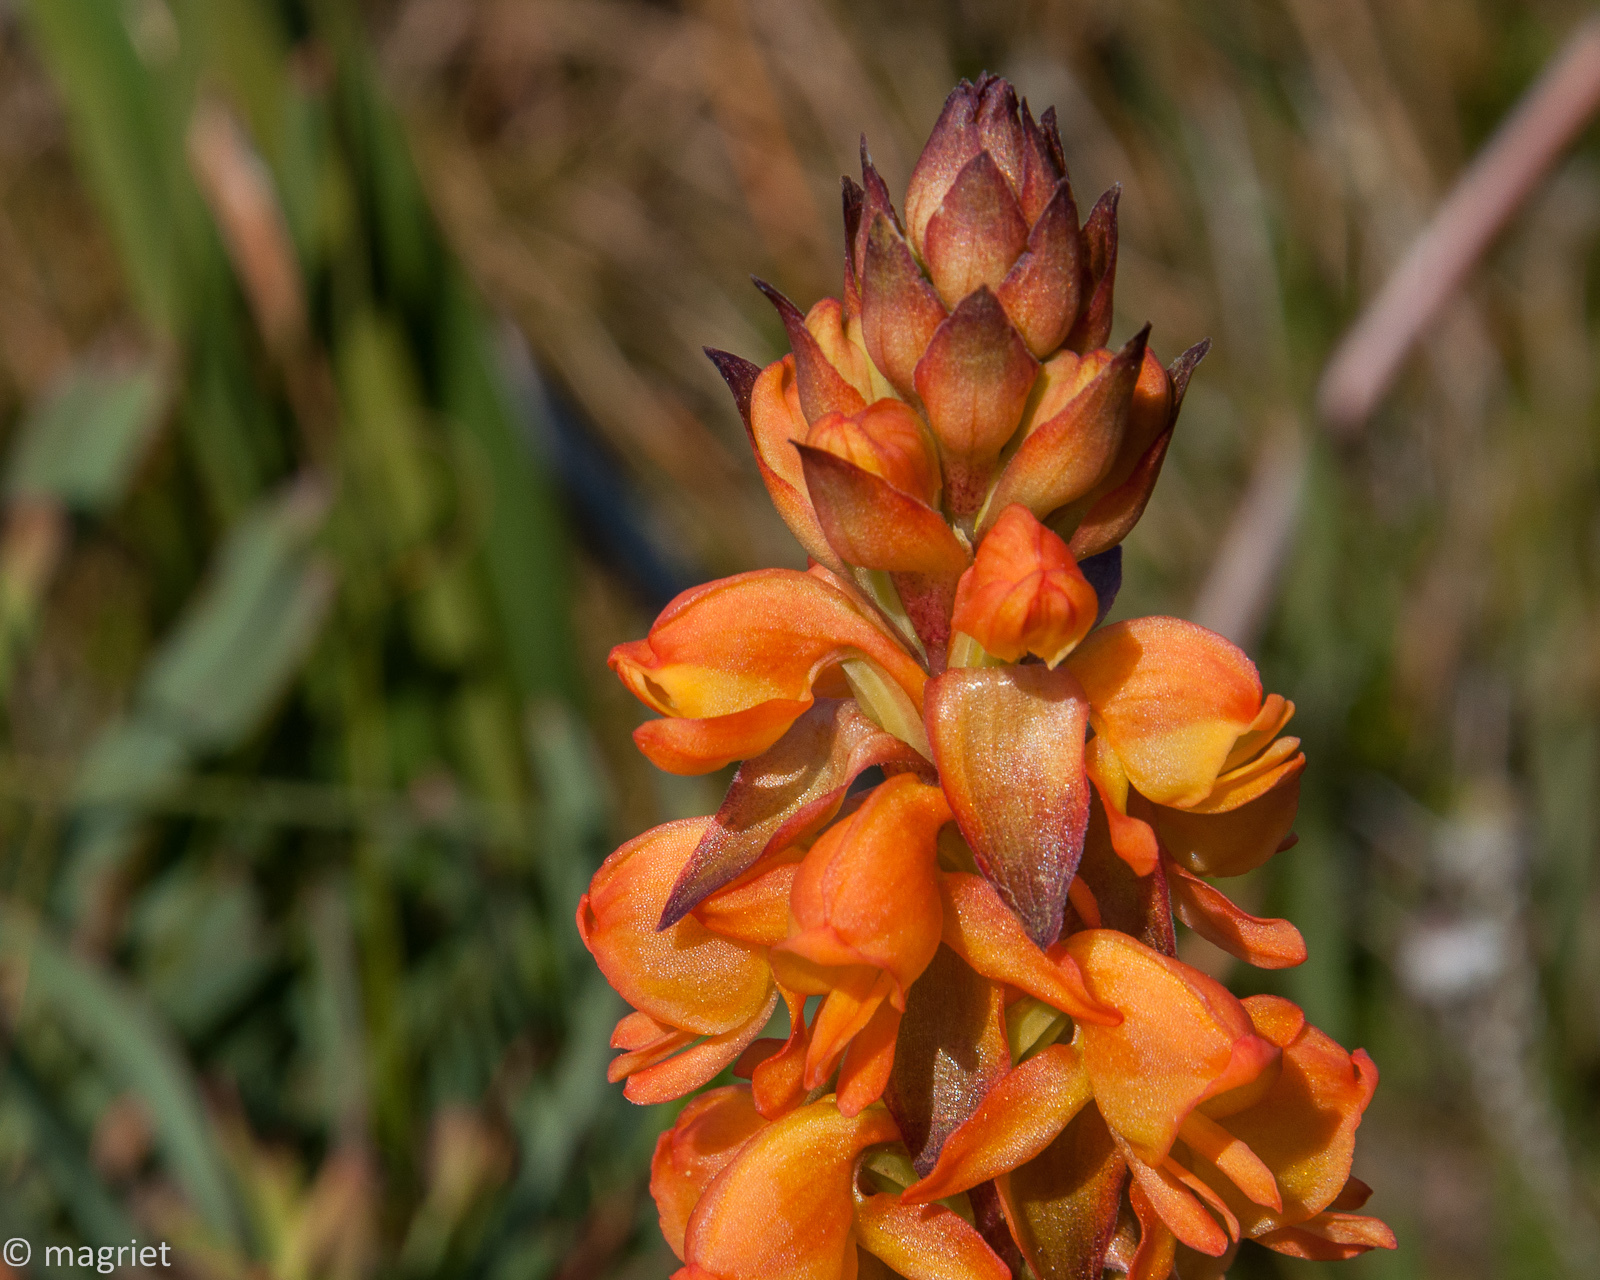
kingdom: Plantae
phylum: Tracheophyta
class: Liliopsida
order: Asparagales
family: Orchidaceae
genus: Satyrium
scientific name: Satyrium coriifolium
